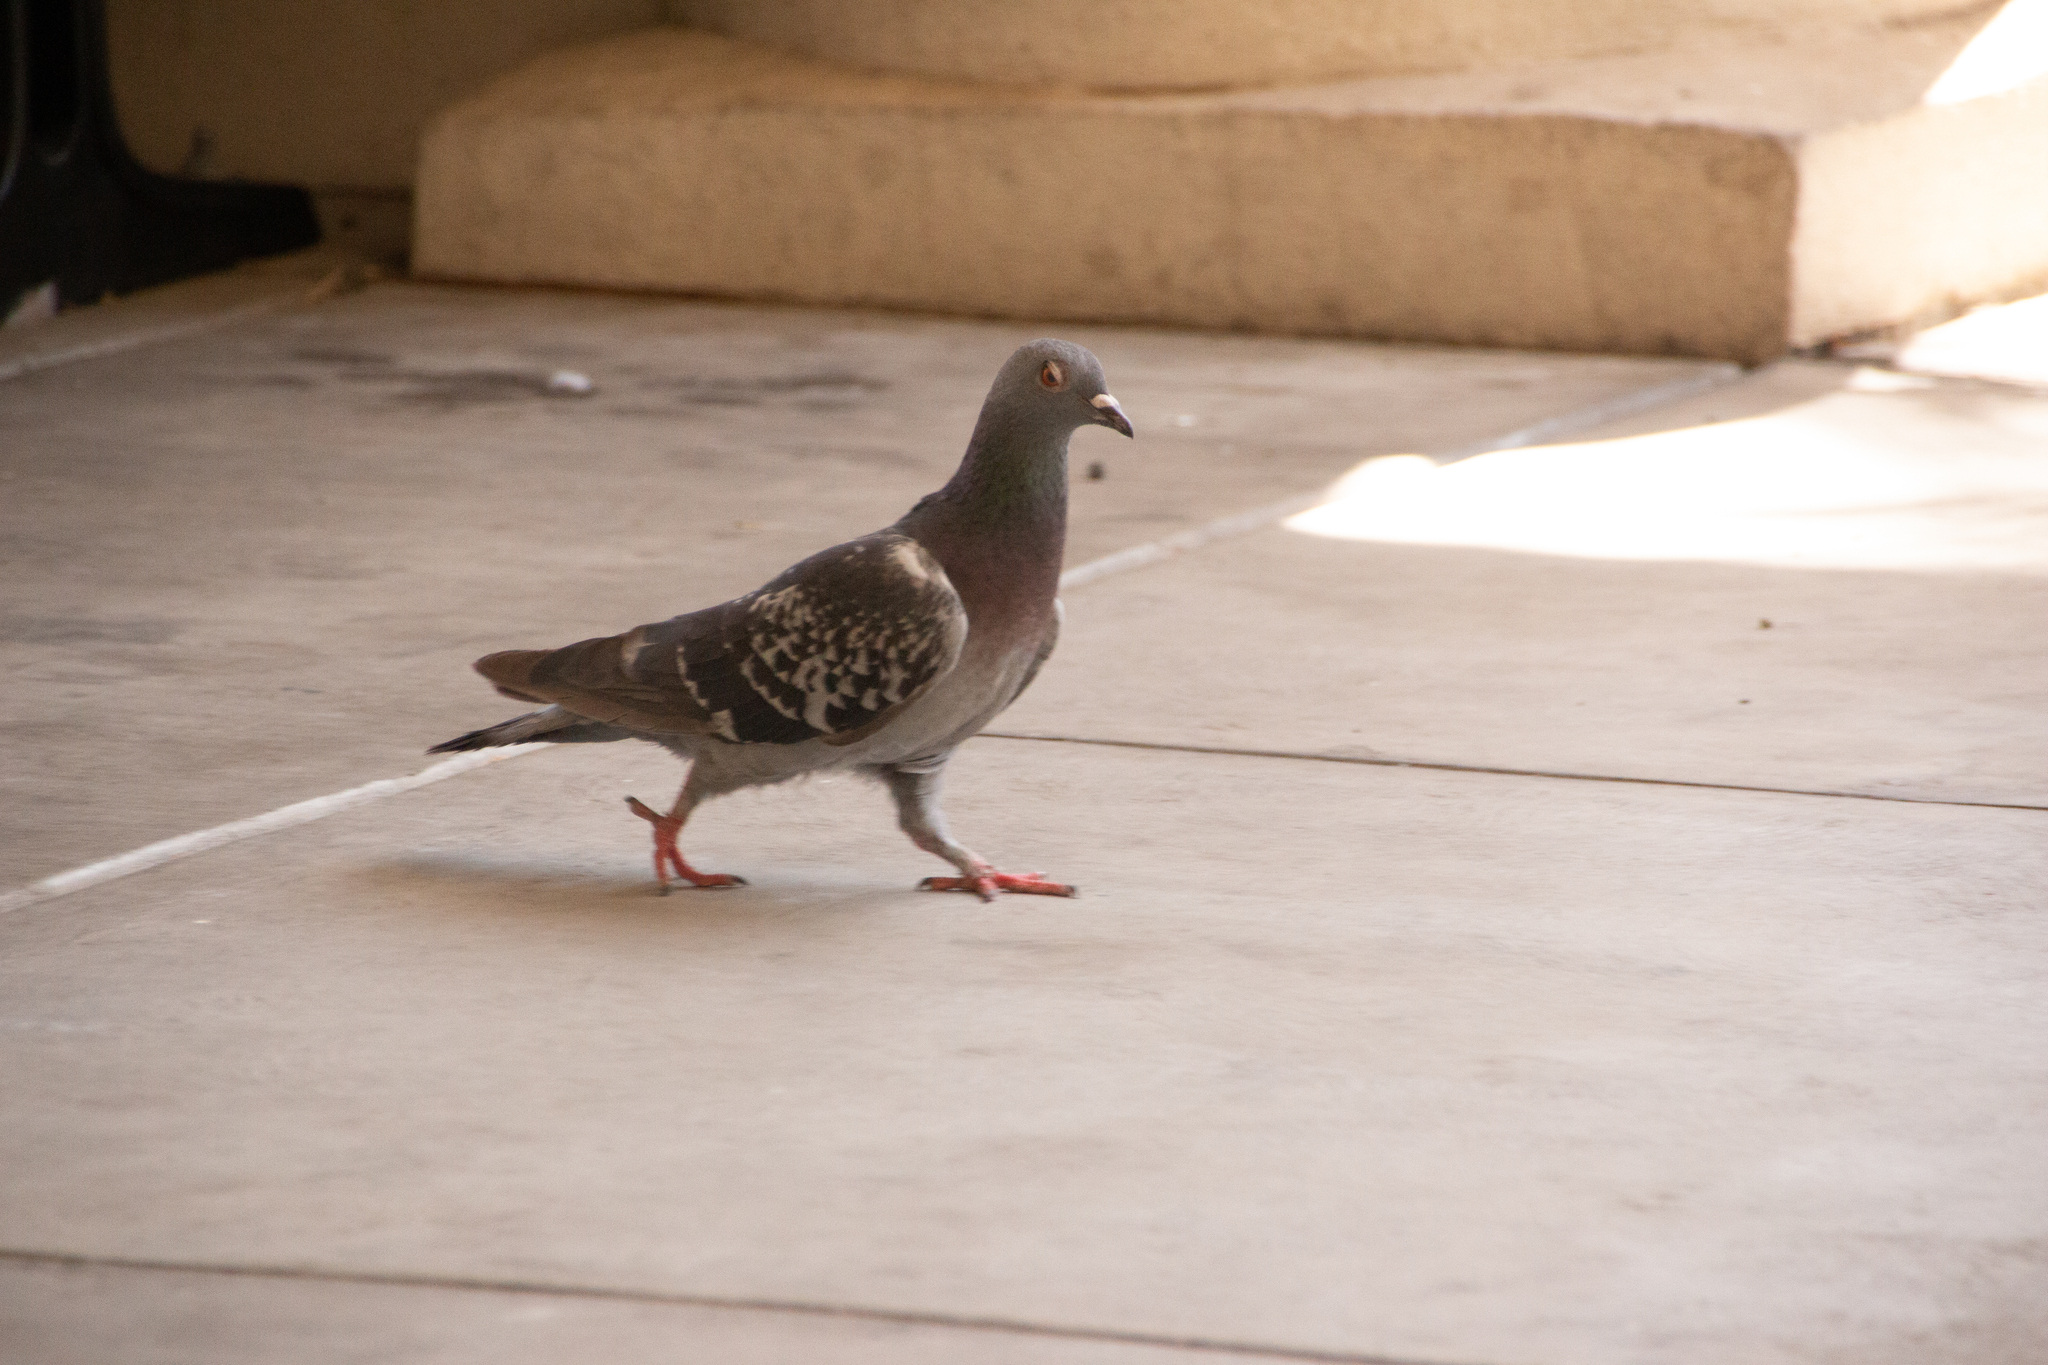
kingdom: Animalia
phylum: Chordata
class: Aves
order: Columbiformes
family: Columbidae
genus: Columba
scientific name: Columba livia
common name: Rock pigeon
